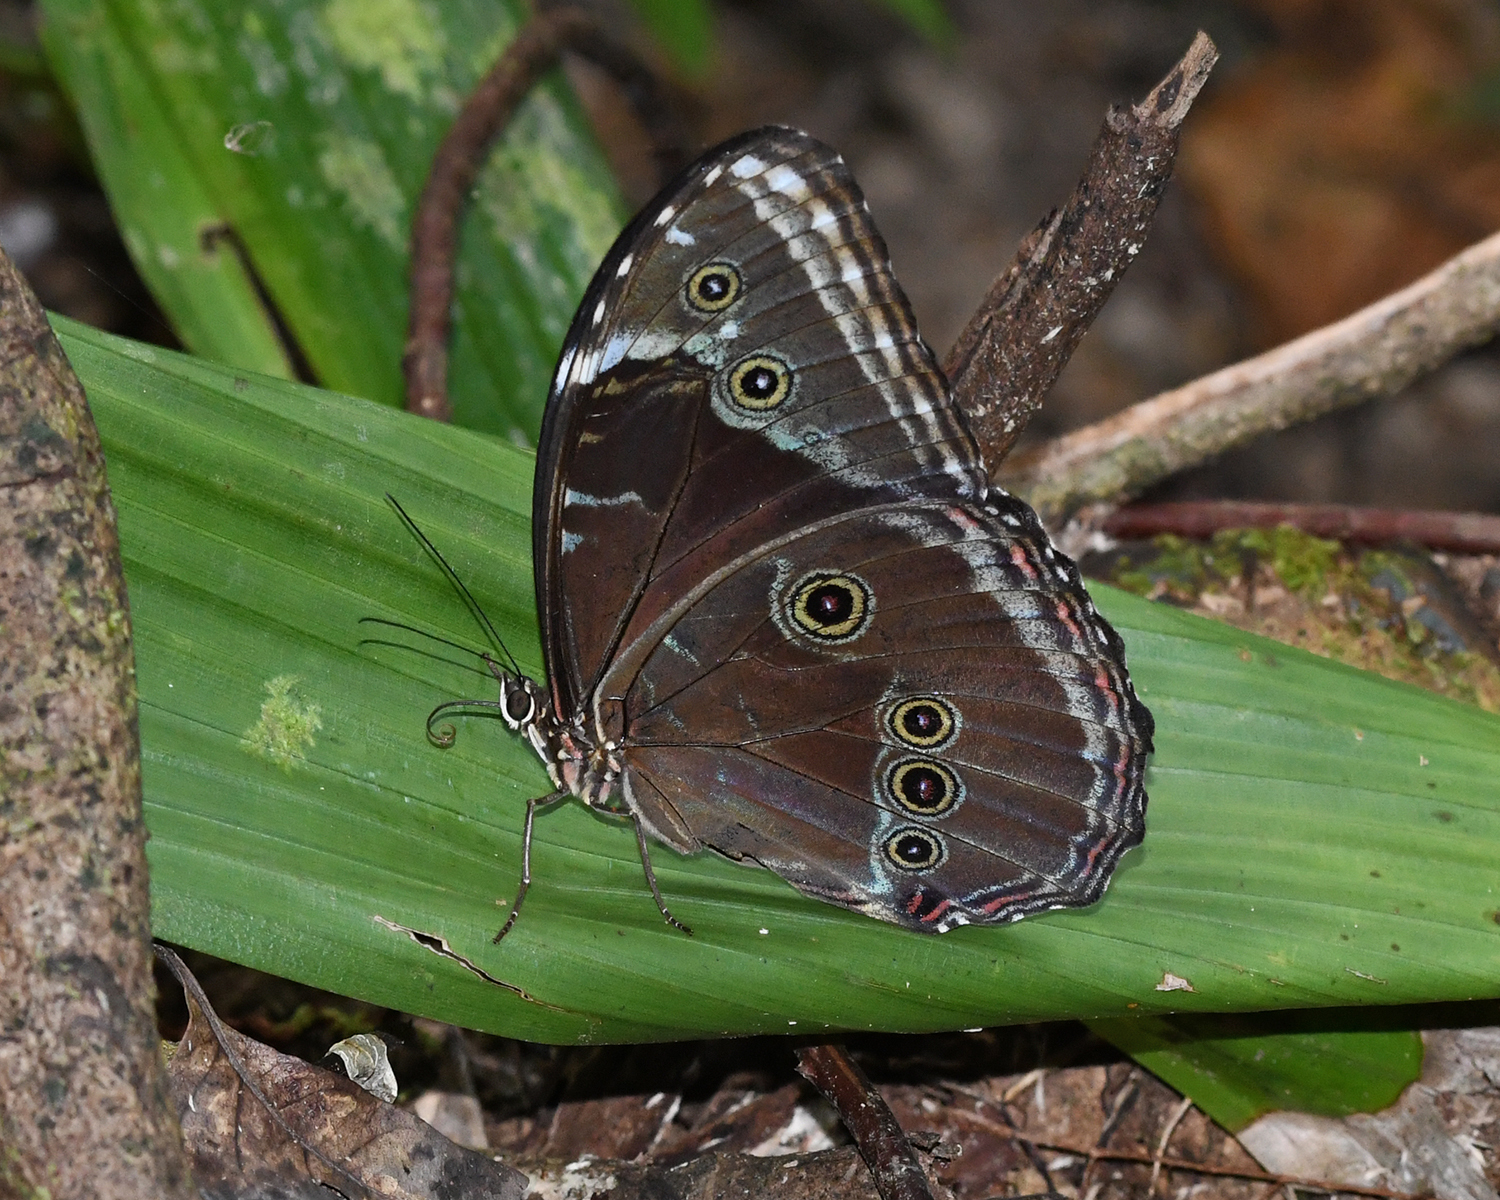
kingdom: Animalia
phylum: Arthropoda
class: Insecta
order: Lepidoptera
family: Nymphalidae
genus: Morpho
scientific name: Morpho helenor
